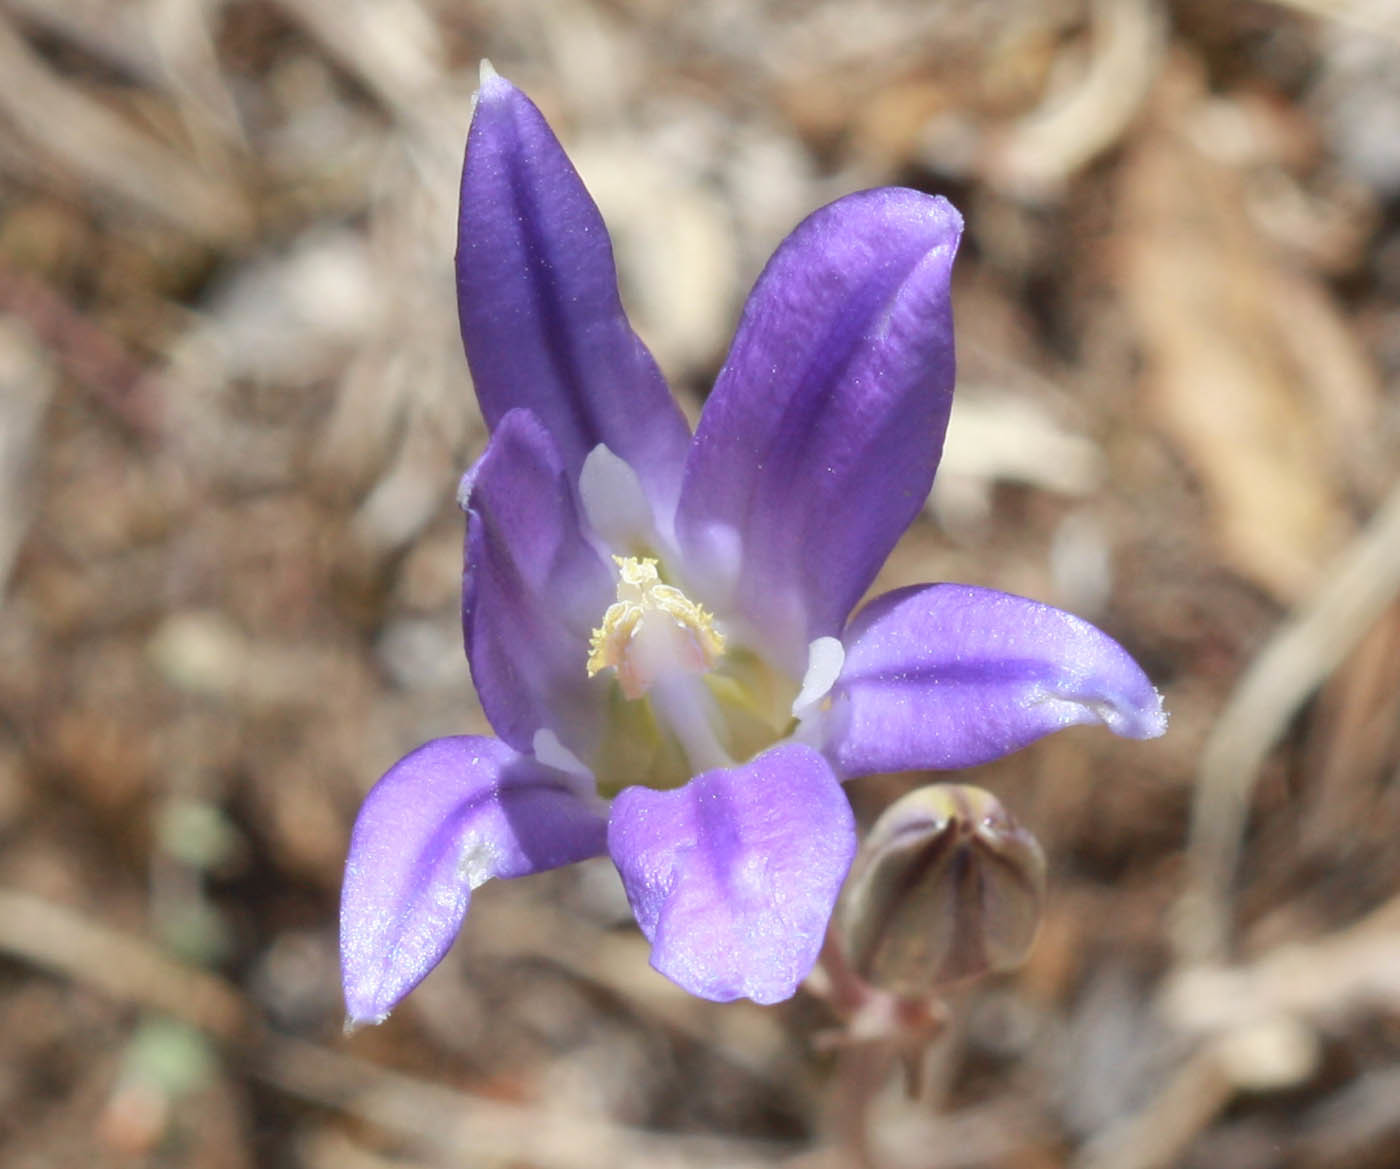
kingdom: Plantae
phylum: Tracheophyta
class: Liliopsida
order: Asparagales
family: Asparagaceae
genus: Brodiaea
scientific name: Brodiaea elegans
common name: Elegant cluster-lily
